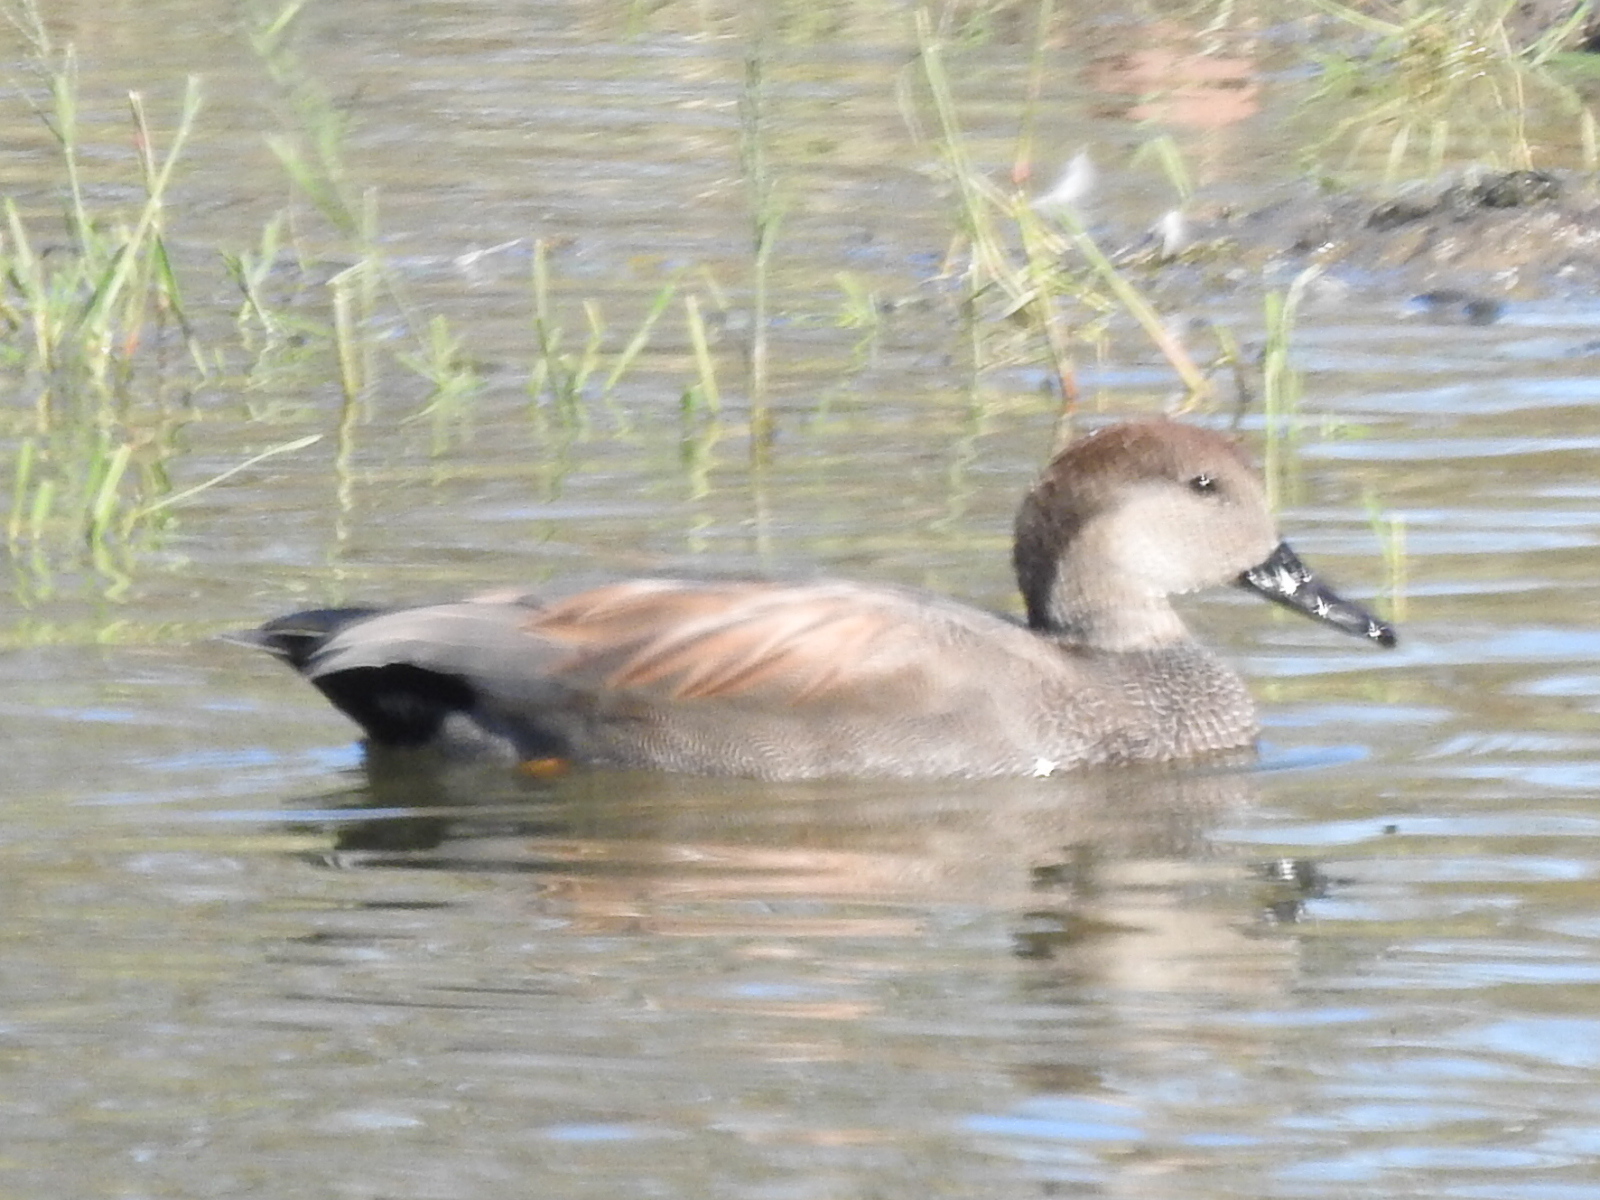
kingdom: Animalia
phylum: Chordata
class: Aves
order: Anseriformes
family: Anatidae
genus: Mareca
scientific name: Mareca strepera
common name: Gadwall
